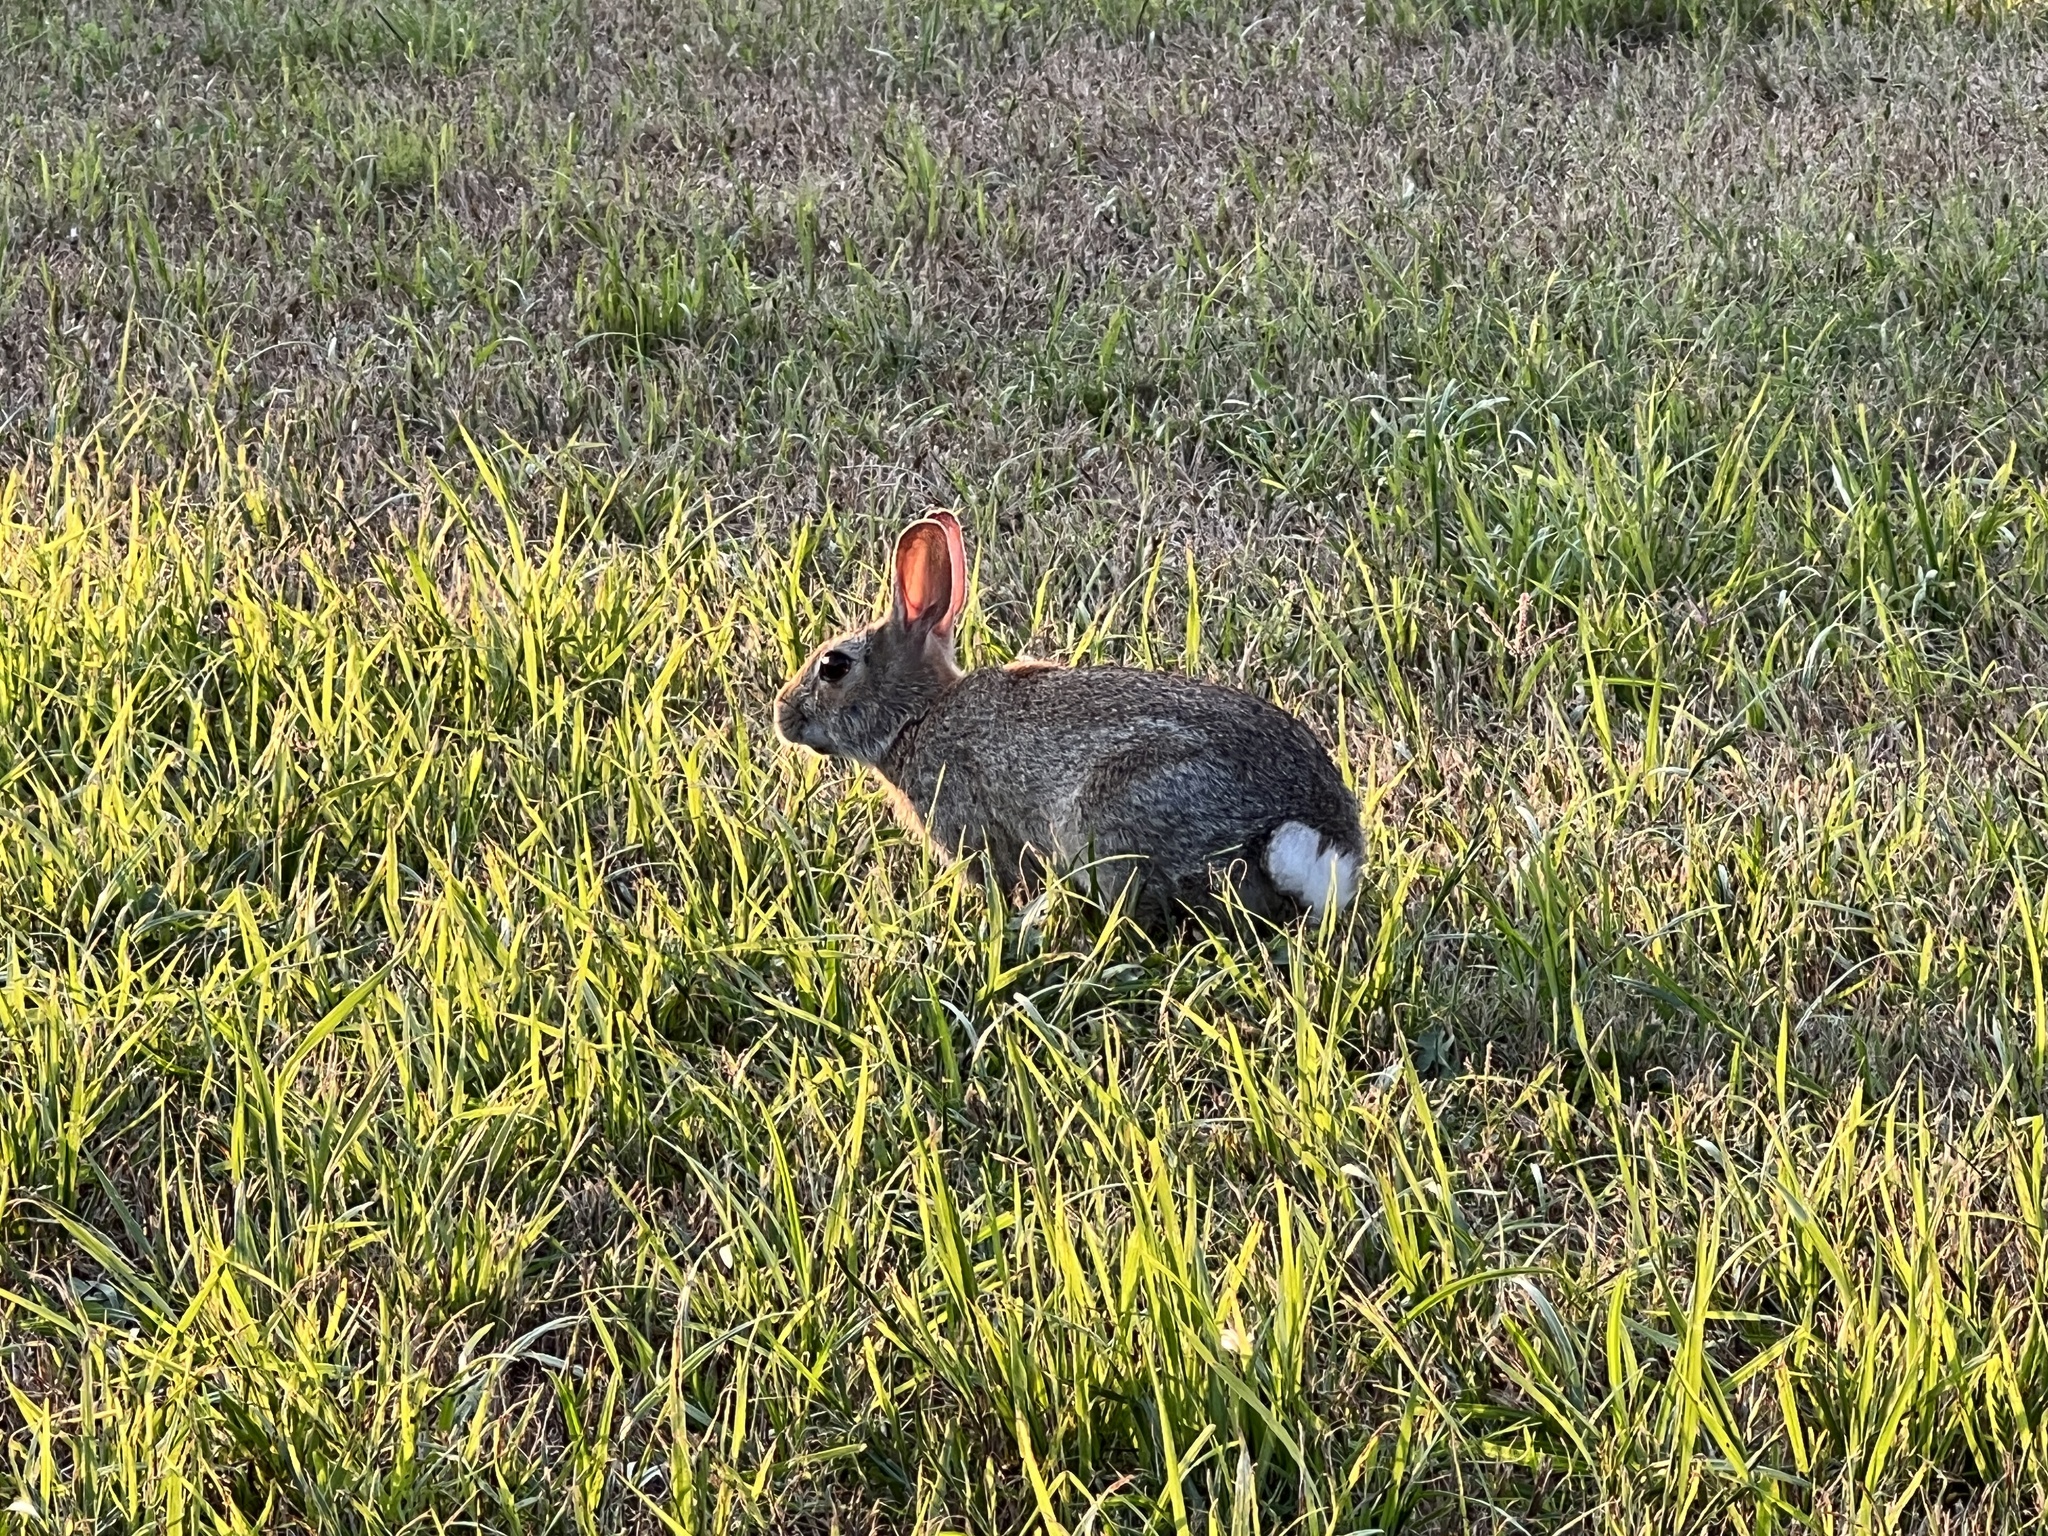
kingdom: Animalia
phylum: Chordata
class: Mammalia
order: Lagomorpha
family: Leporidae
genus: Sylvilagus
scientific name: Sylvilagus floridanus
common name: Eastern cottontail
